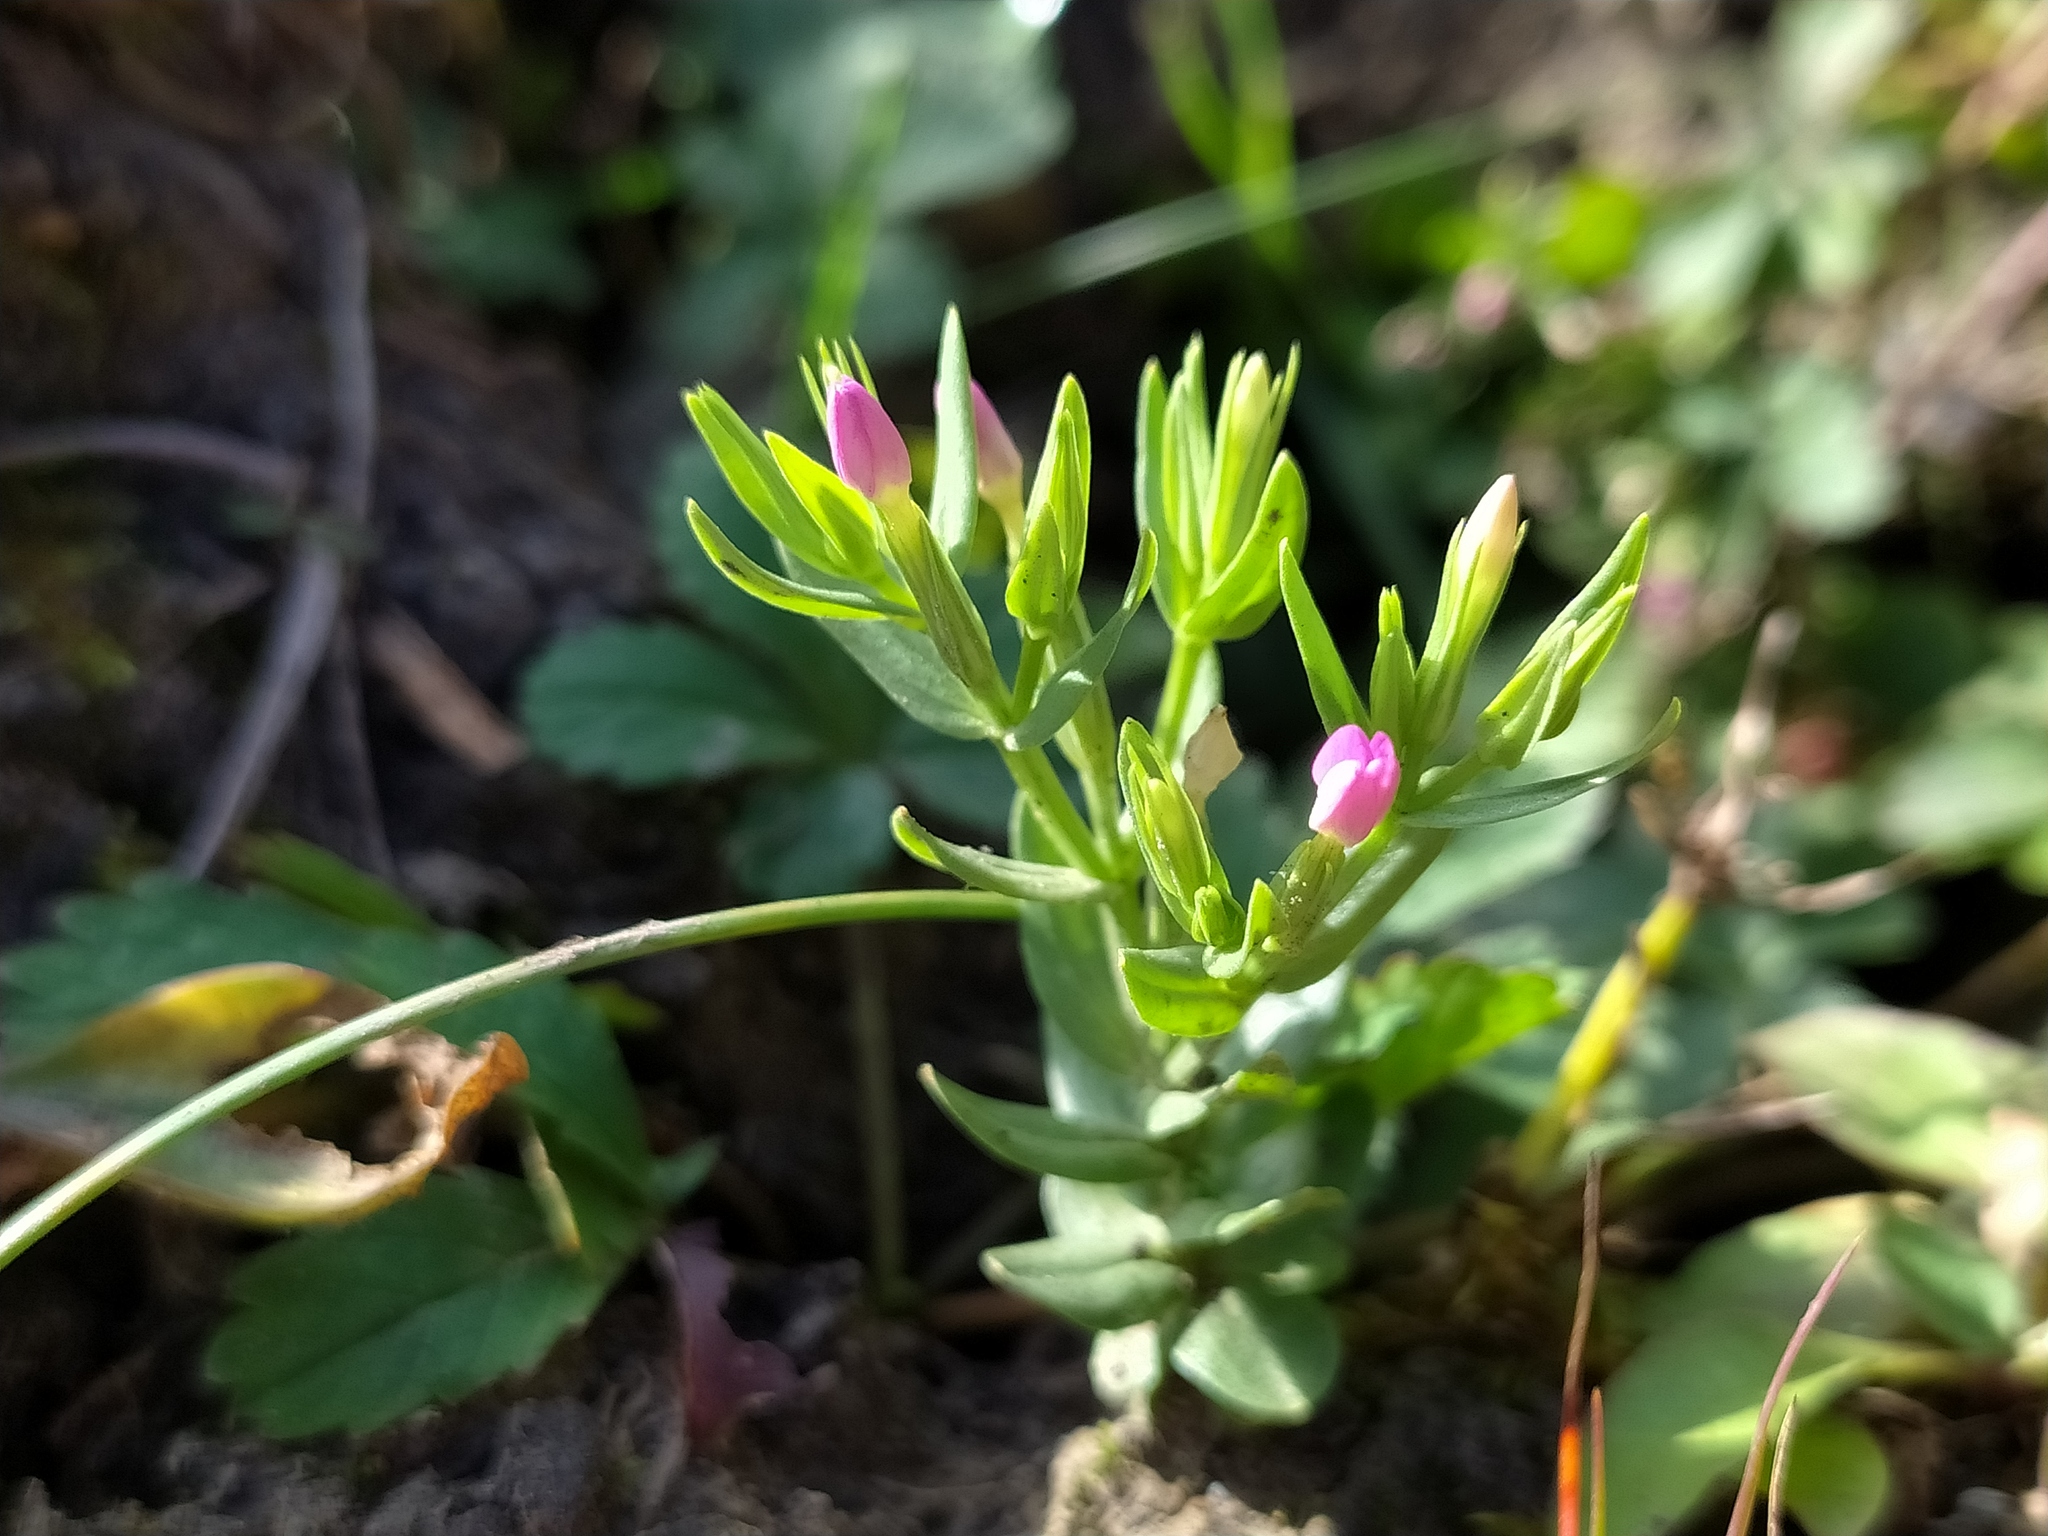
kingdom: Plantae
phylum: Tracheophyta
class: Magnoliopsida
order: Gentianales
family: Gentianaceae
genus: Centaurium
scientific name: Centaurium pulchellum
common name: Lesser centaury
